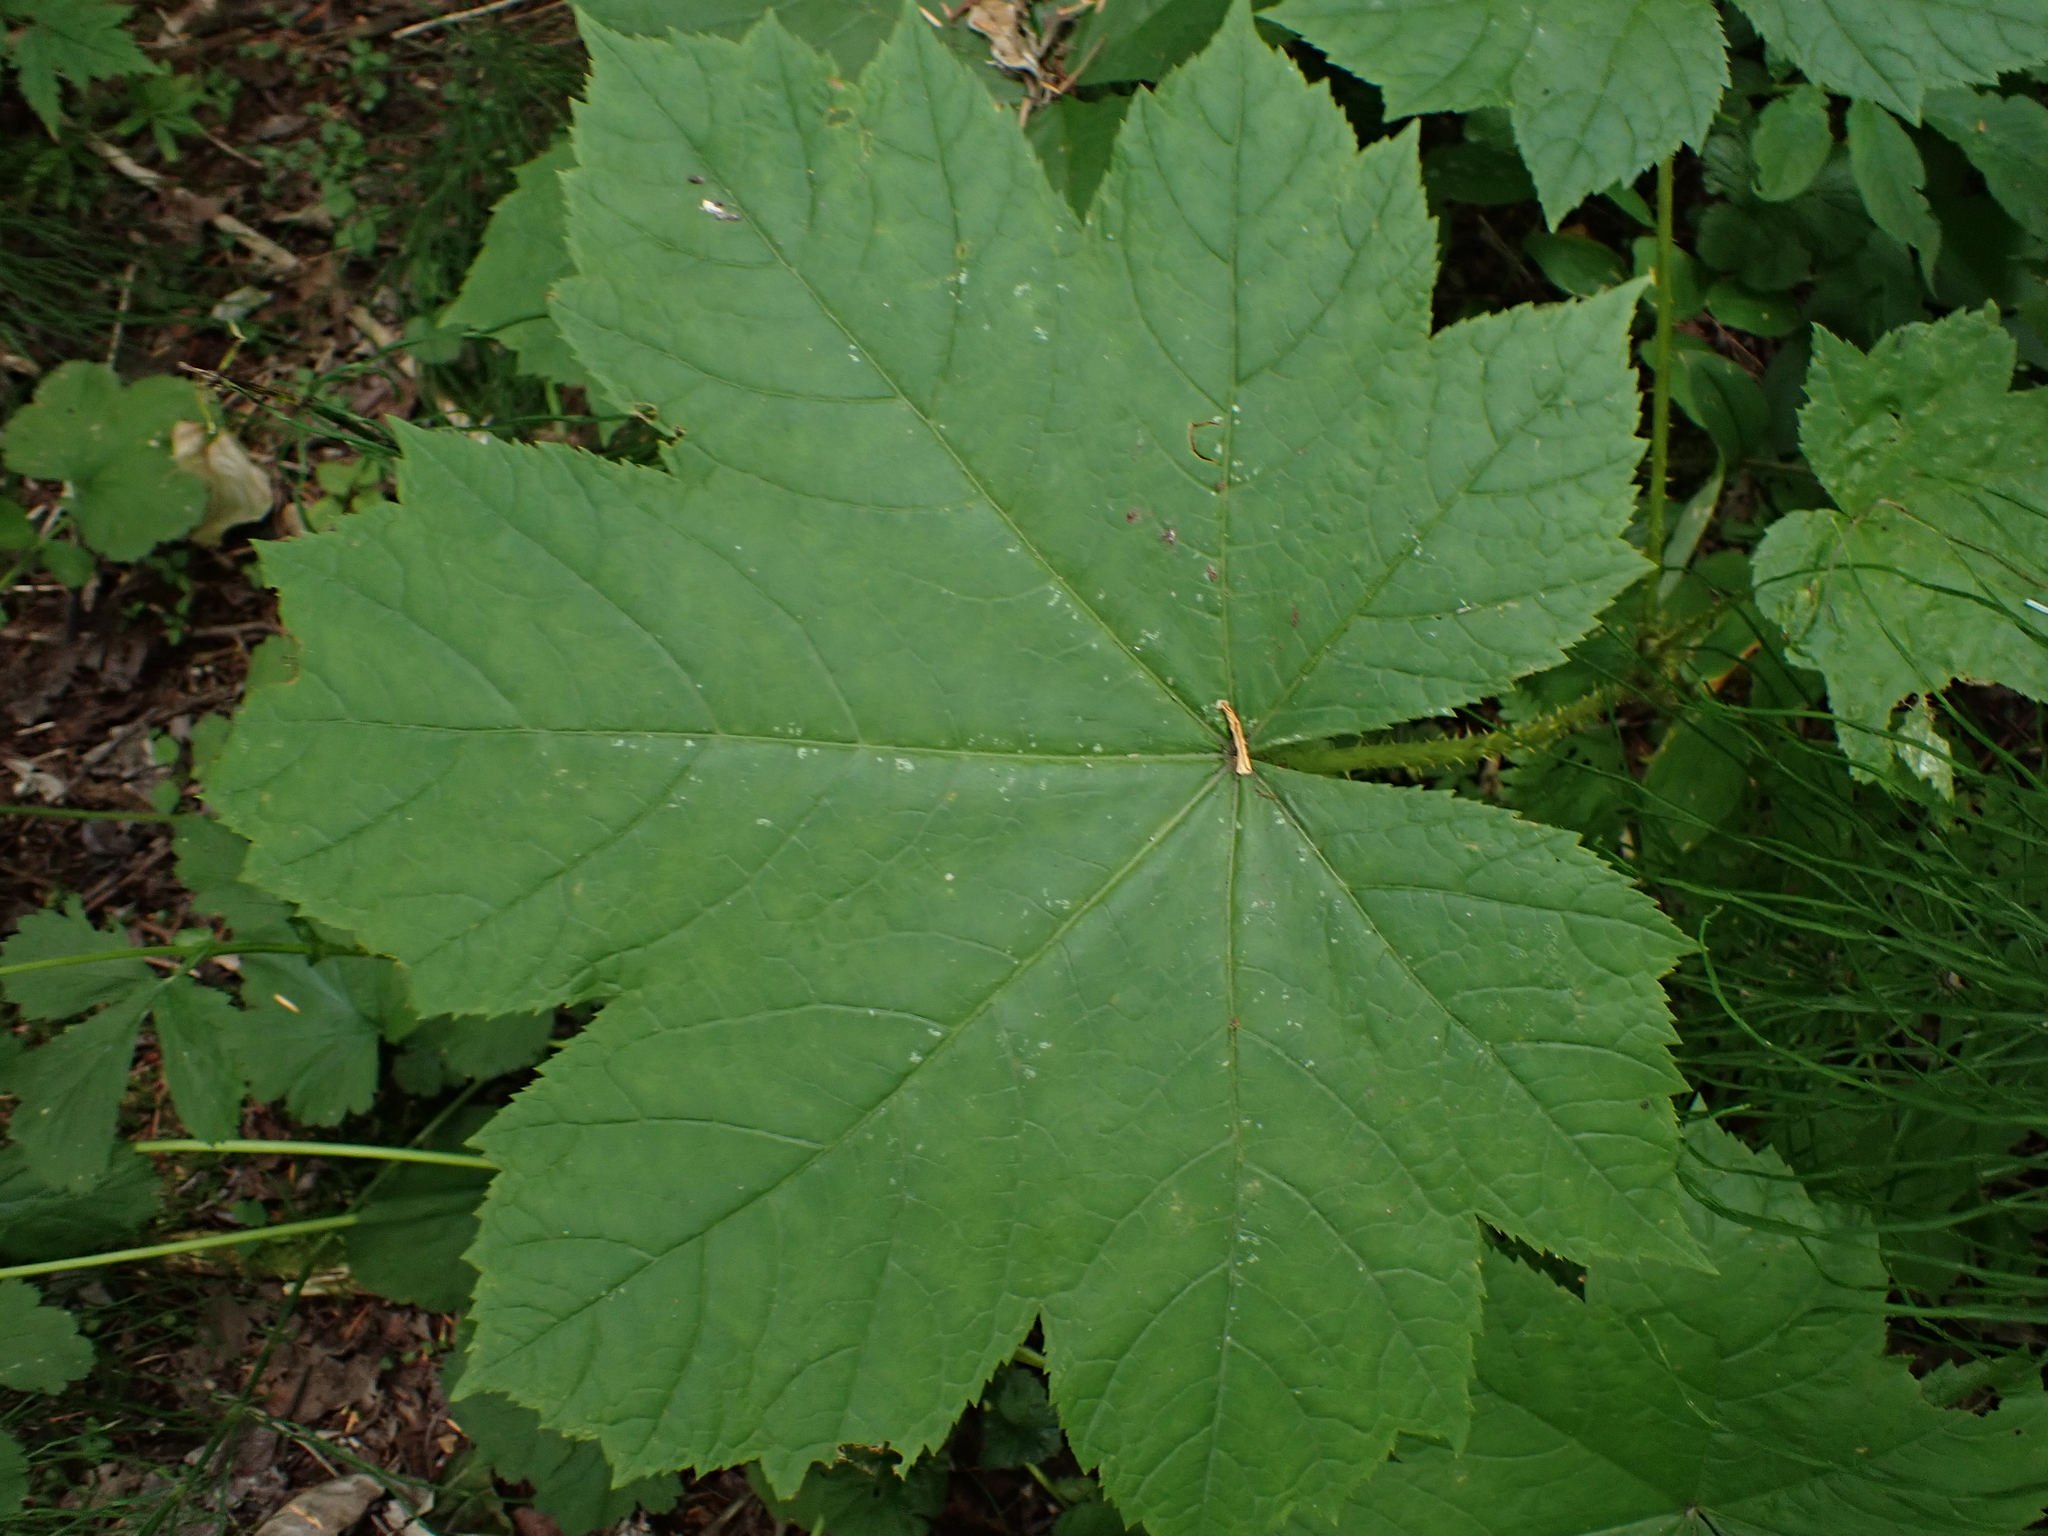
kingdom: Plantae
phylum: Tracheophyta
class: Magnoliopsida
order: Apiales
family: Araliaceae
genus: Oplopanax
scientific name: Oplopanax horridus
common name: Devil's walking-stick
